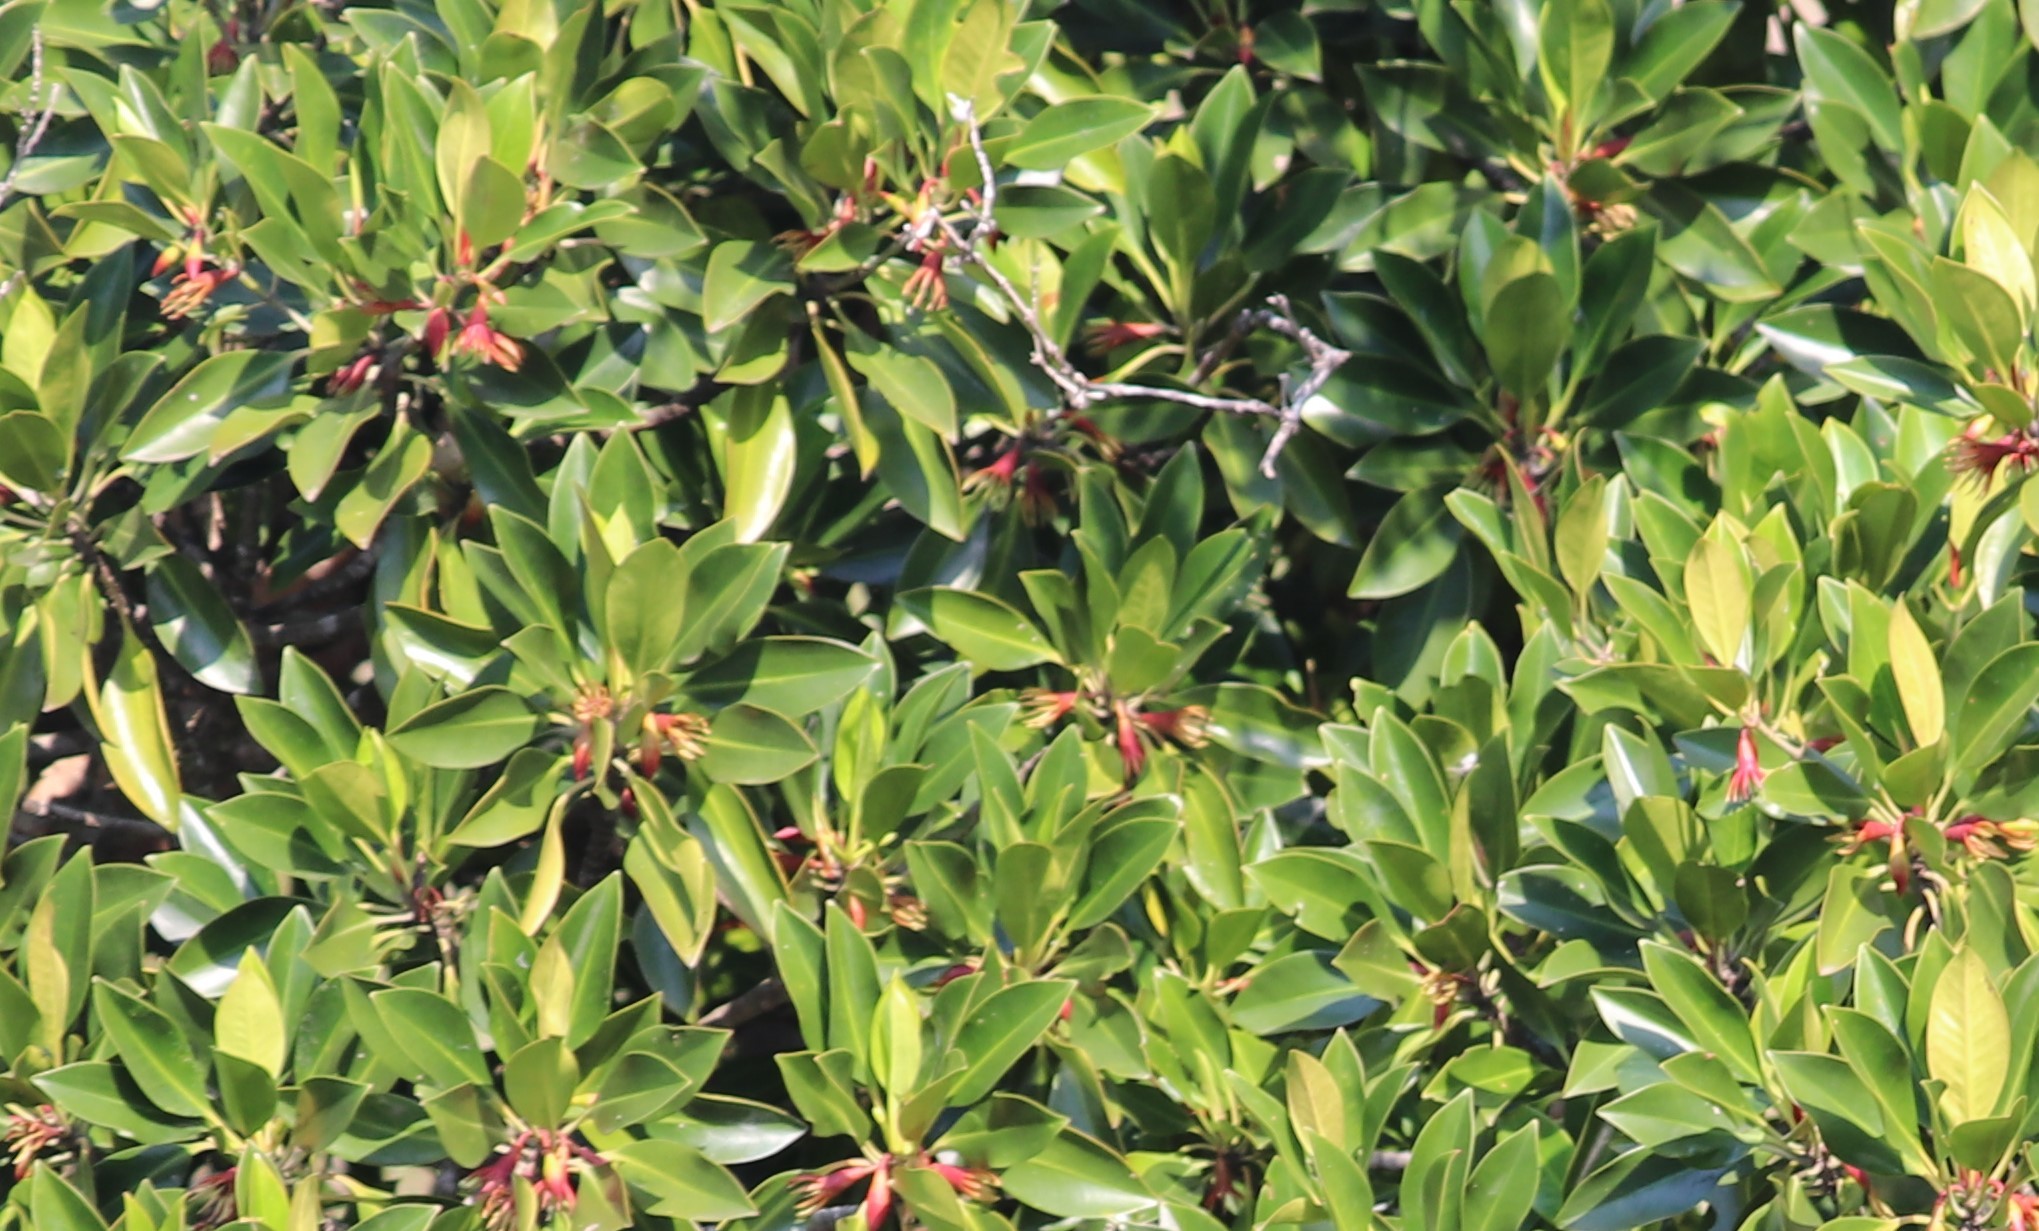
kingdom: Plantae
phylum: Tracheophyta
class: Magnoliopsida
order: Malpighiales
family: Rhizophoraceae
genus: Bruguiera
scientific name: Bruguiera gymnorhiza
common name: Oriental mangrove
